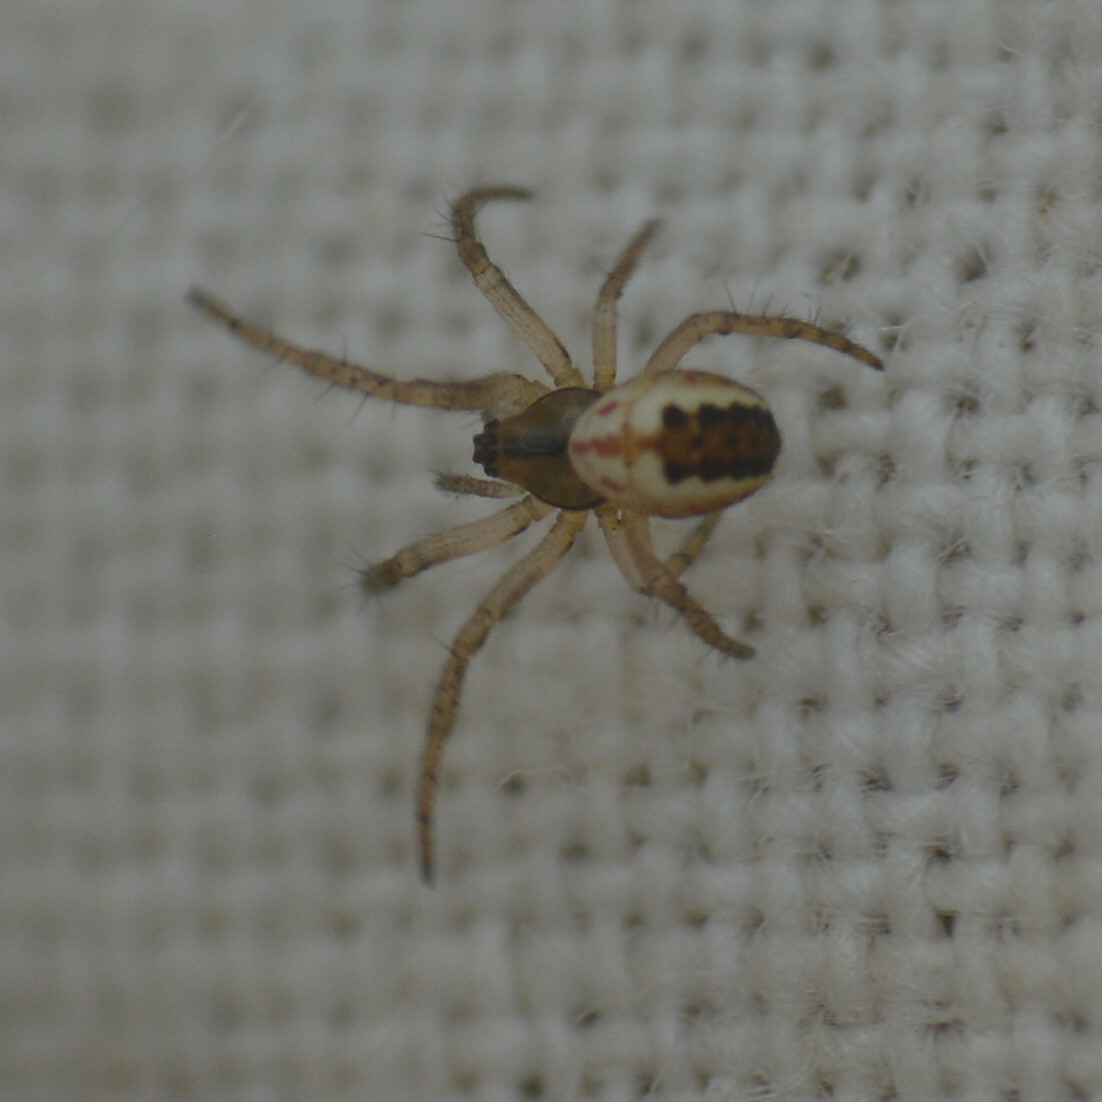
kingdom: Animalia
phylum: Arthropoda
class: Arachnida
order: Araneae
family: Araneidae
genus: Mangora
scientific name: Mangora acalypha
